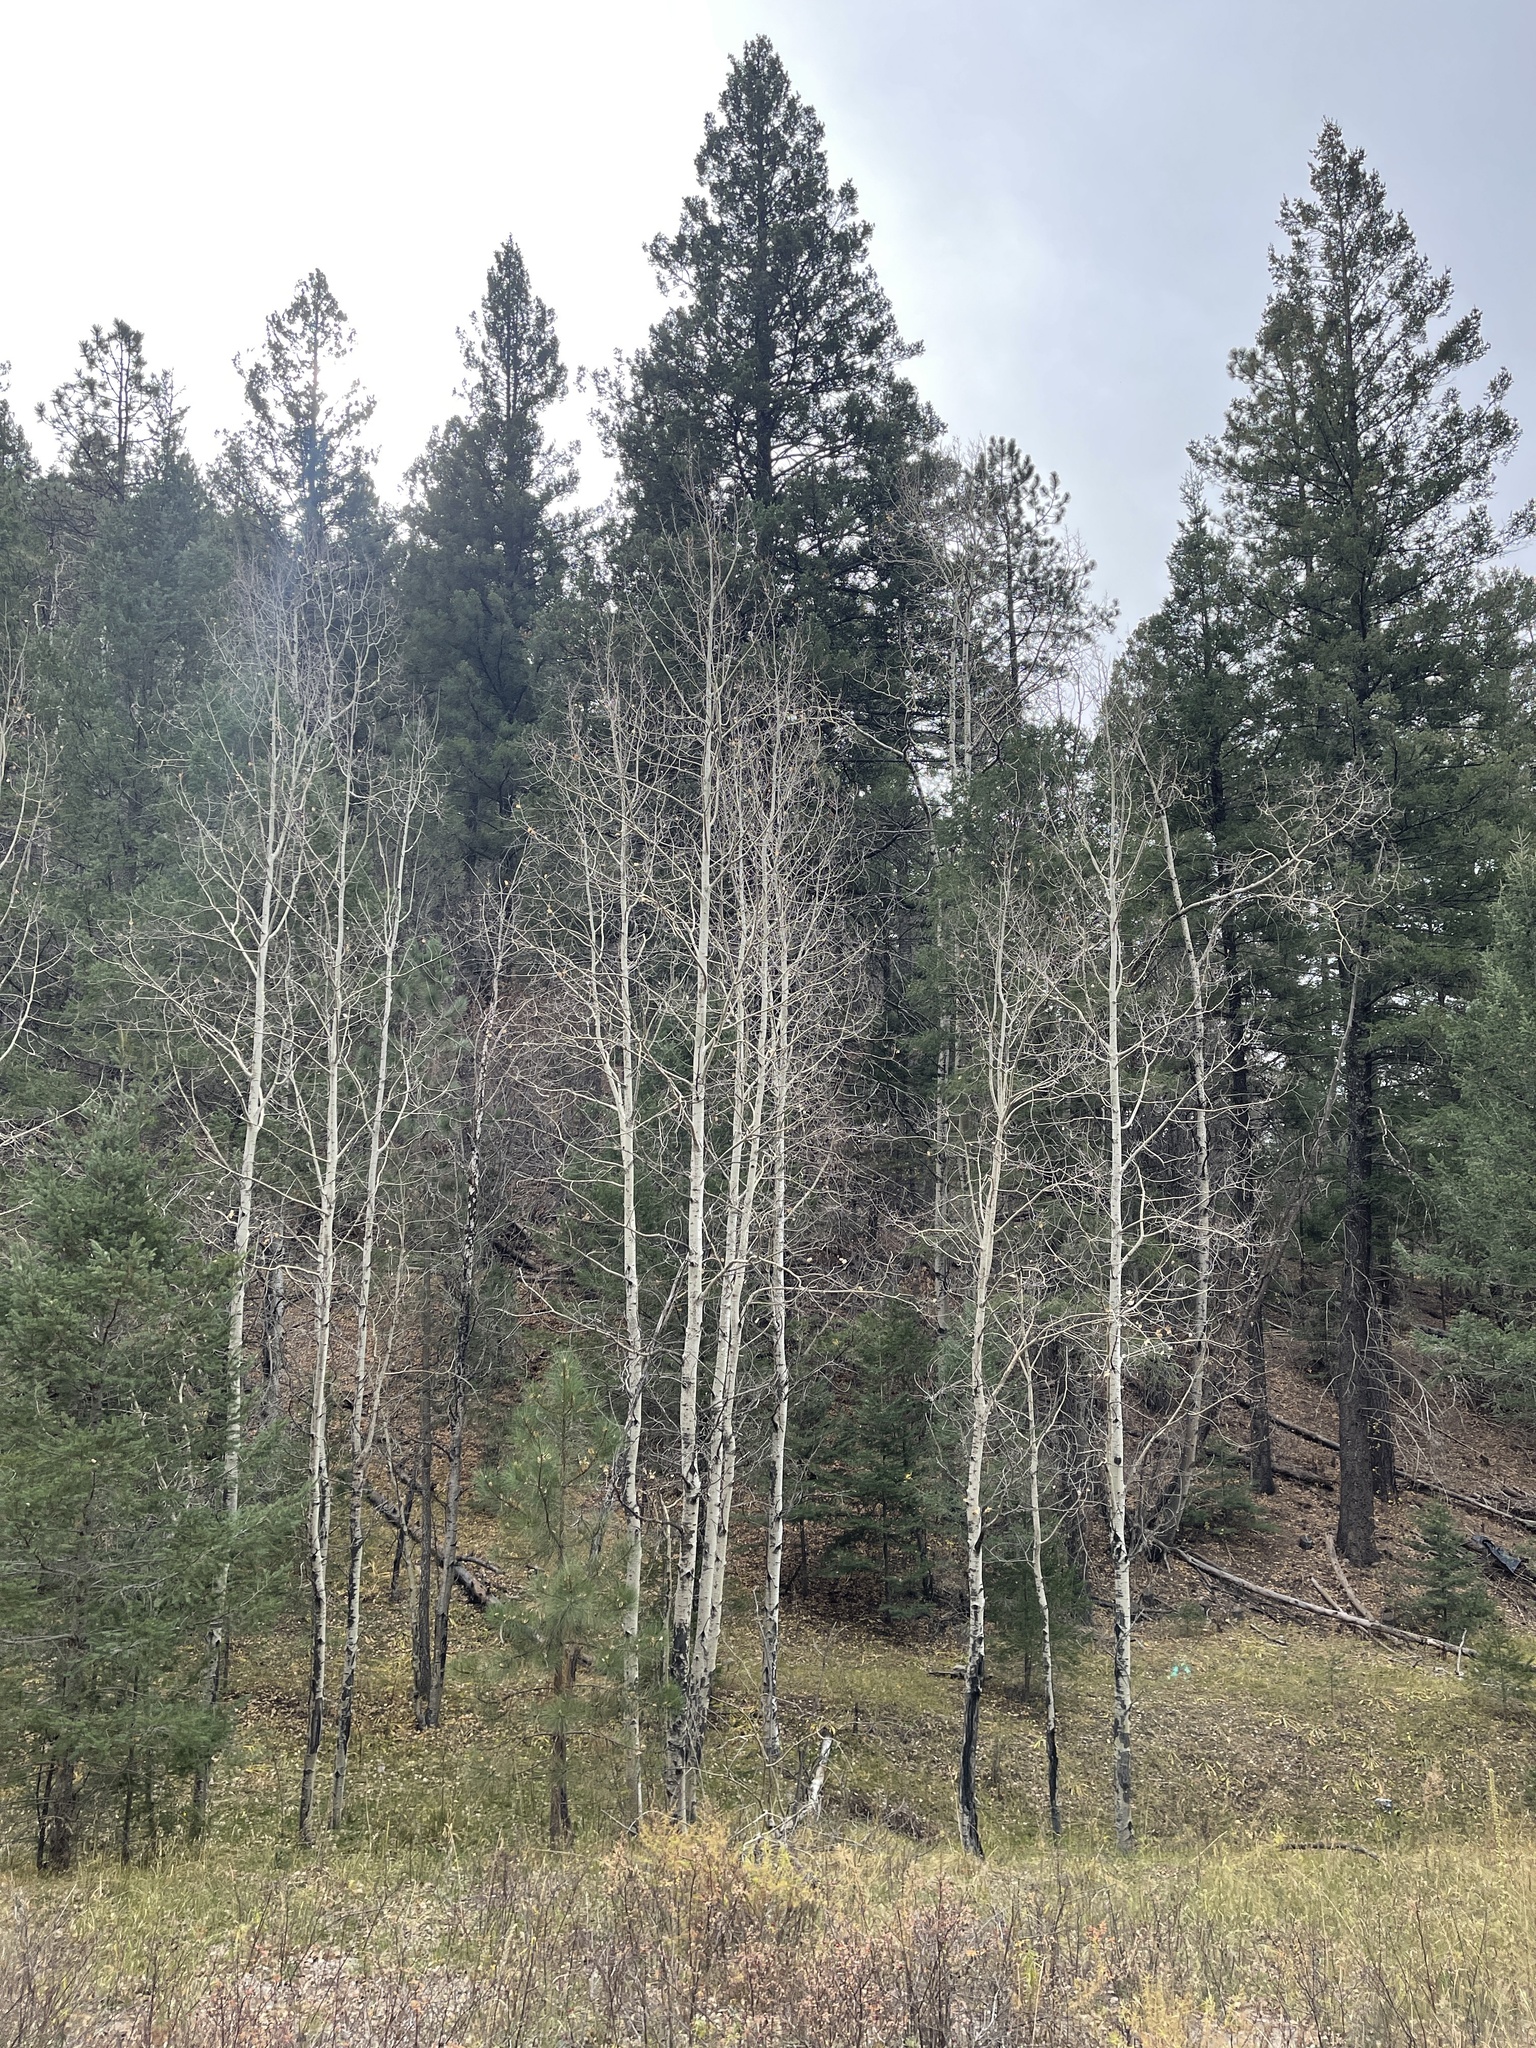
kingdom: Plantae
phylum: Tracheophyta
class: Magnoliopsida
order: Malpighiales
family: Salicaceae
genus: Populus
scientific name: Populus tremuloides
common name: Quaking aspen
